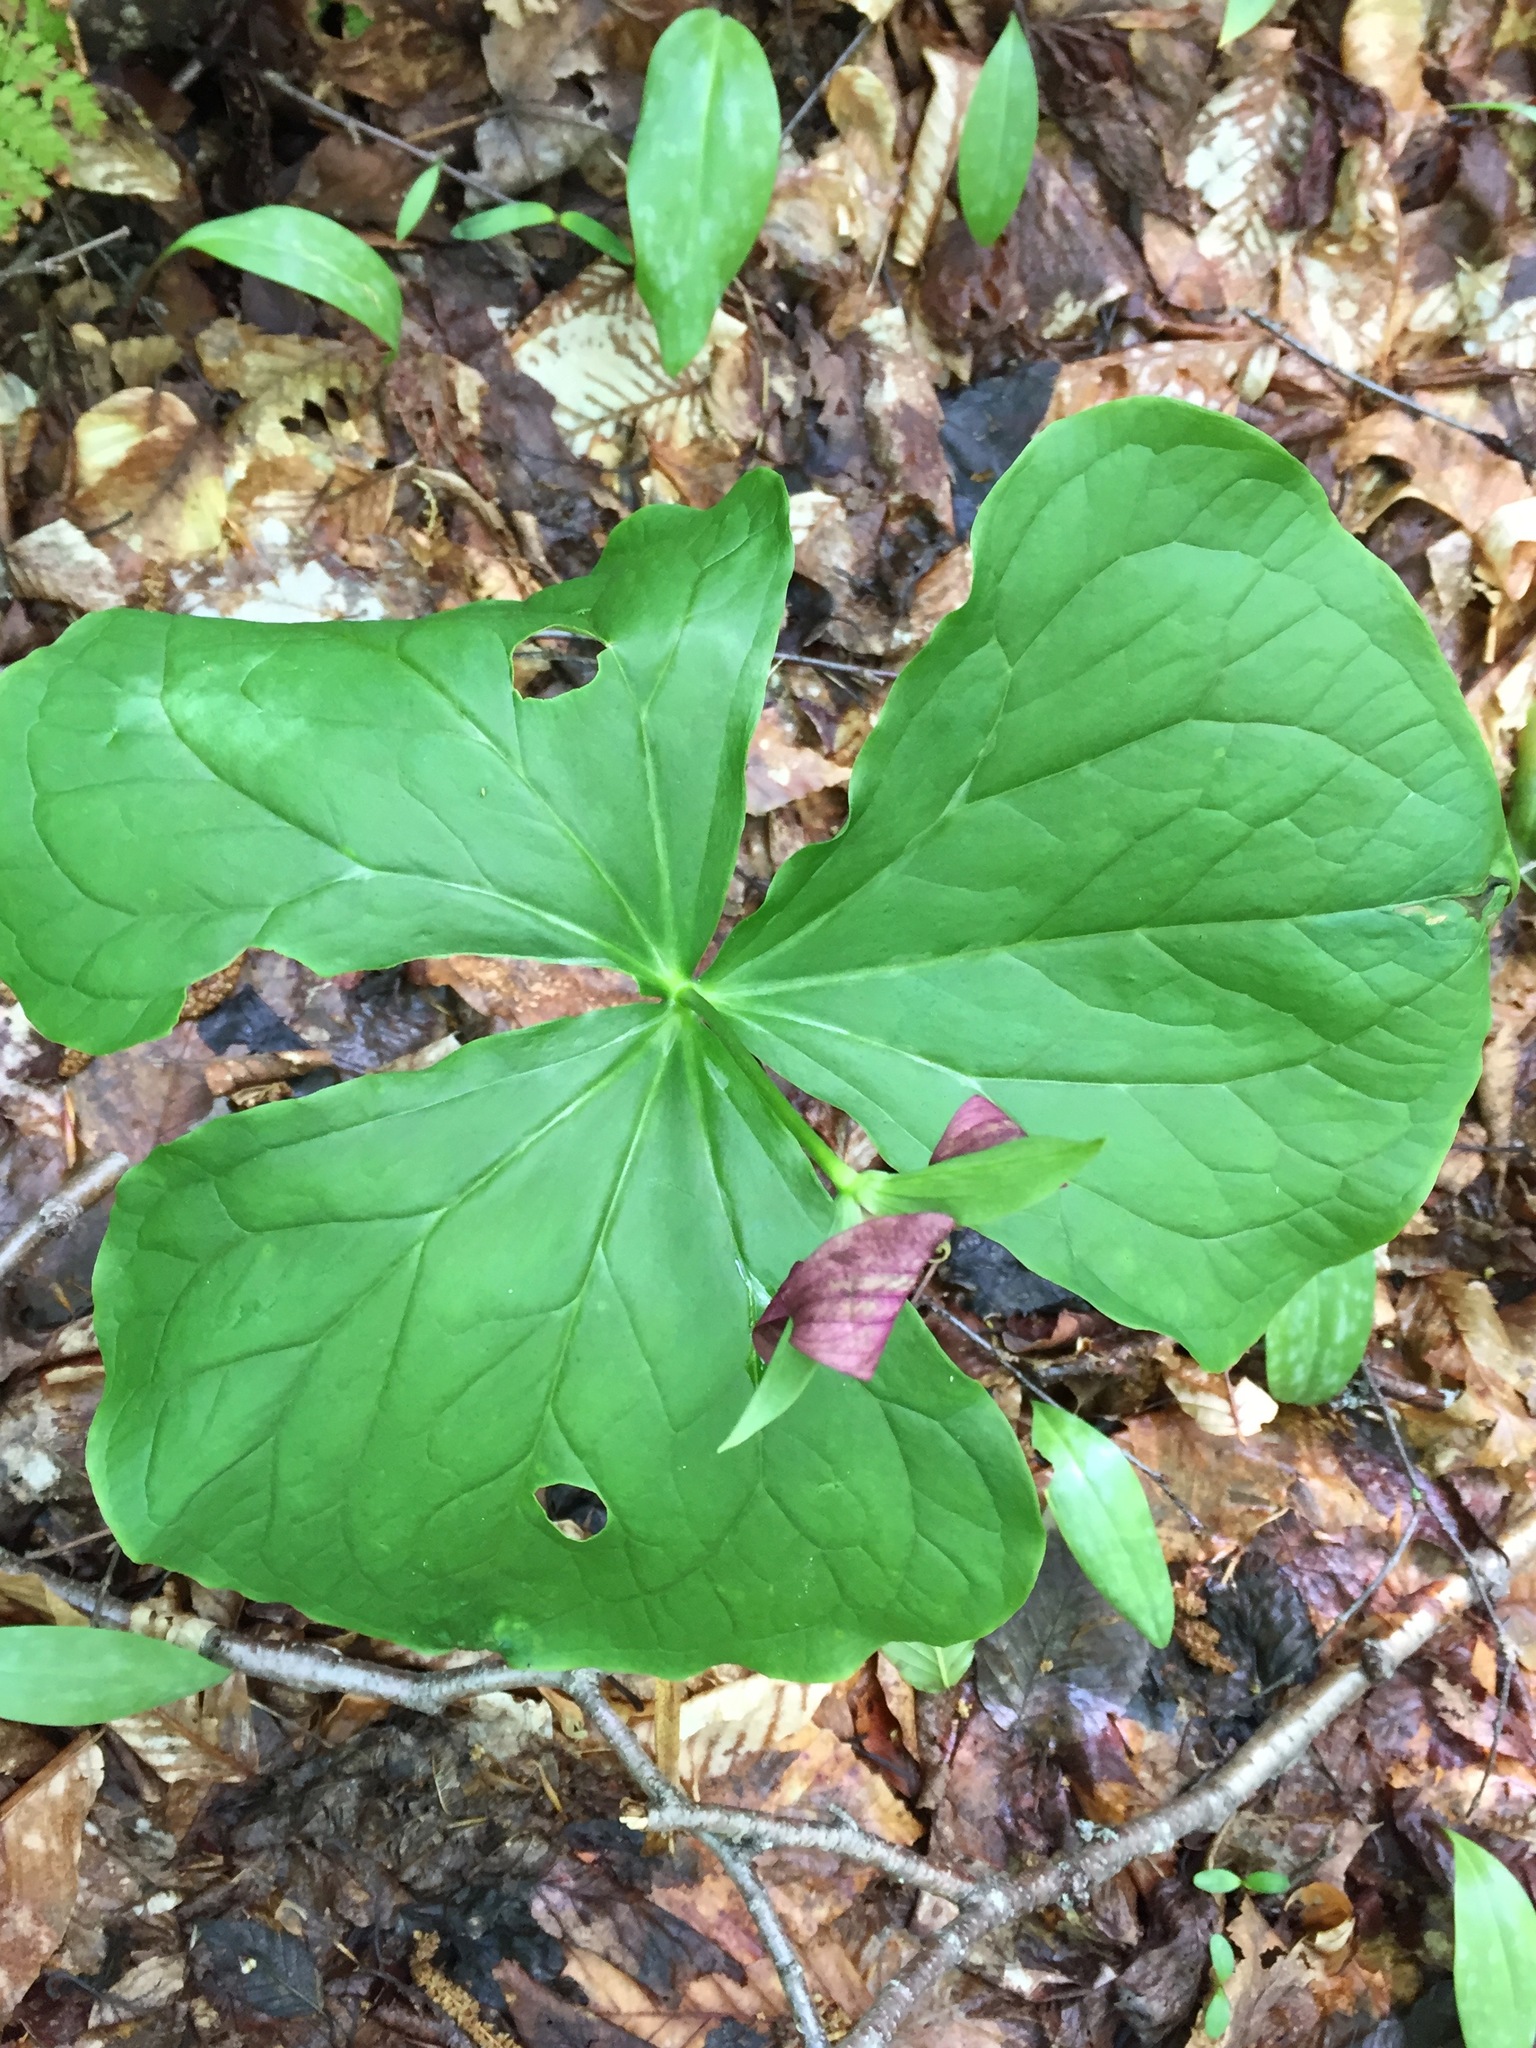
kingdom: Plantae
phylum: Tracheophyta
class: Liliopsida
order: Liliales
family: Melanthiaceae
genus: Trillium
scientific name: Trillium erectum
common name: Purple trillium
